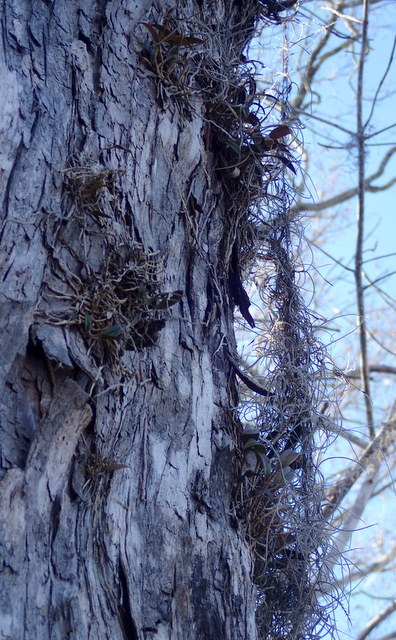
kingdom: Plantae
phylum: Tracheophyta
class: Liliopsida
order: Asparagales
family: Orchidaceae
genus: Epidendrum
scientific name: Epidendrum conopseum
